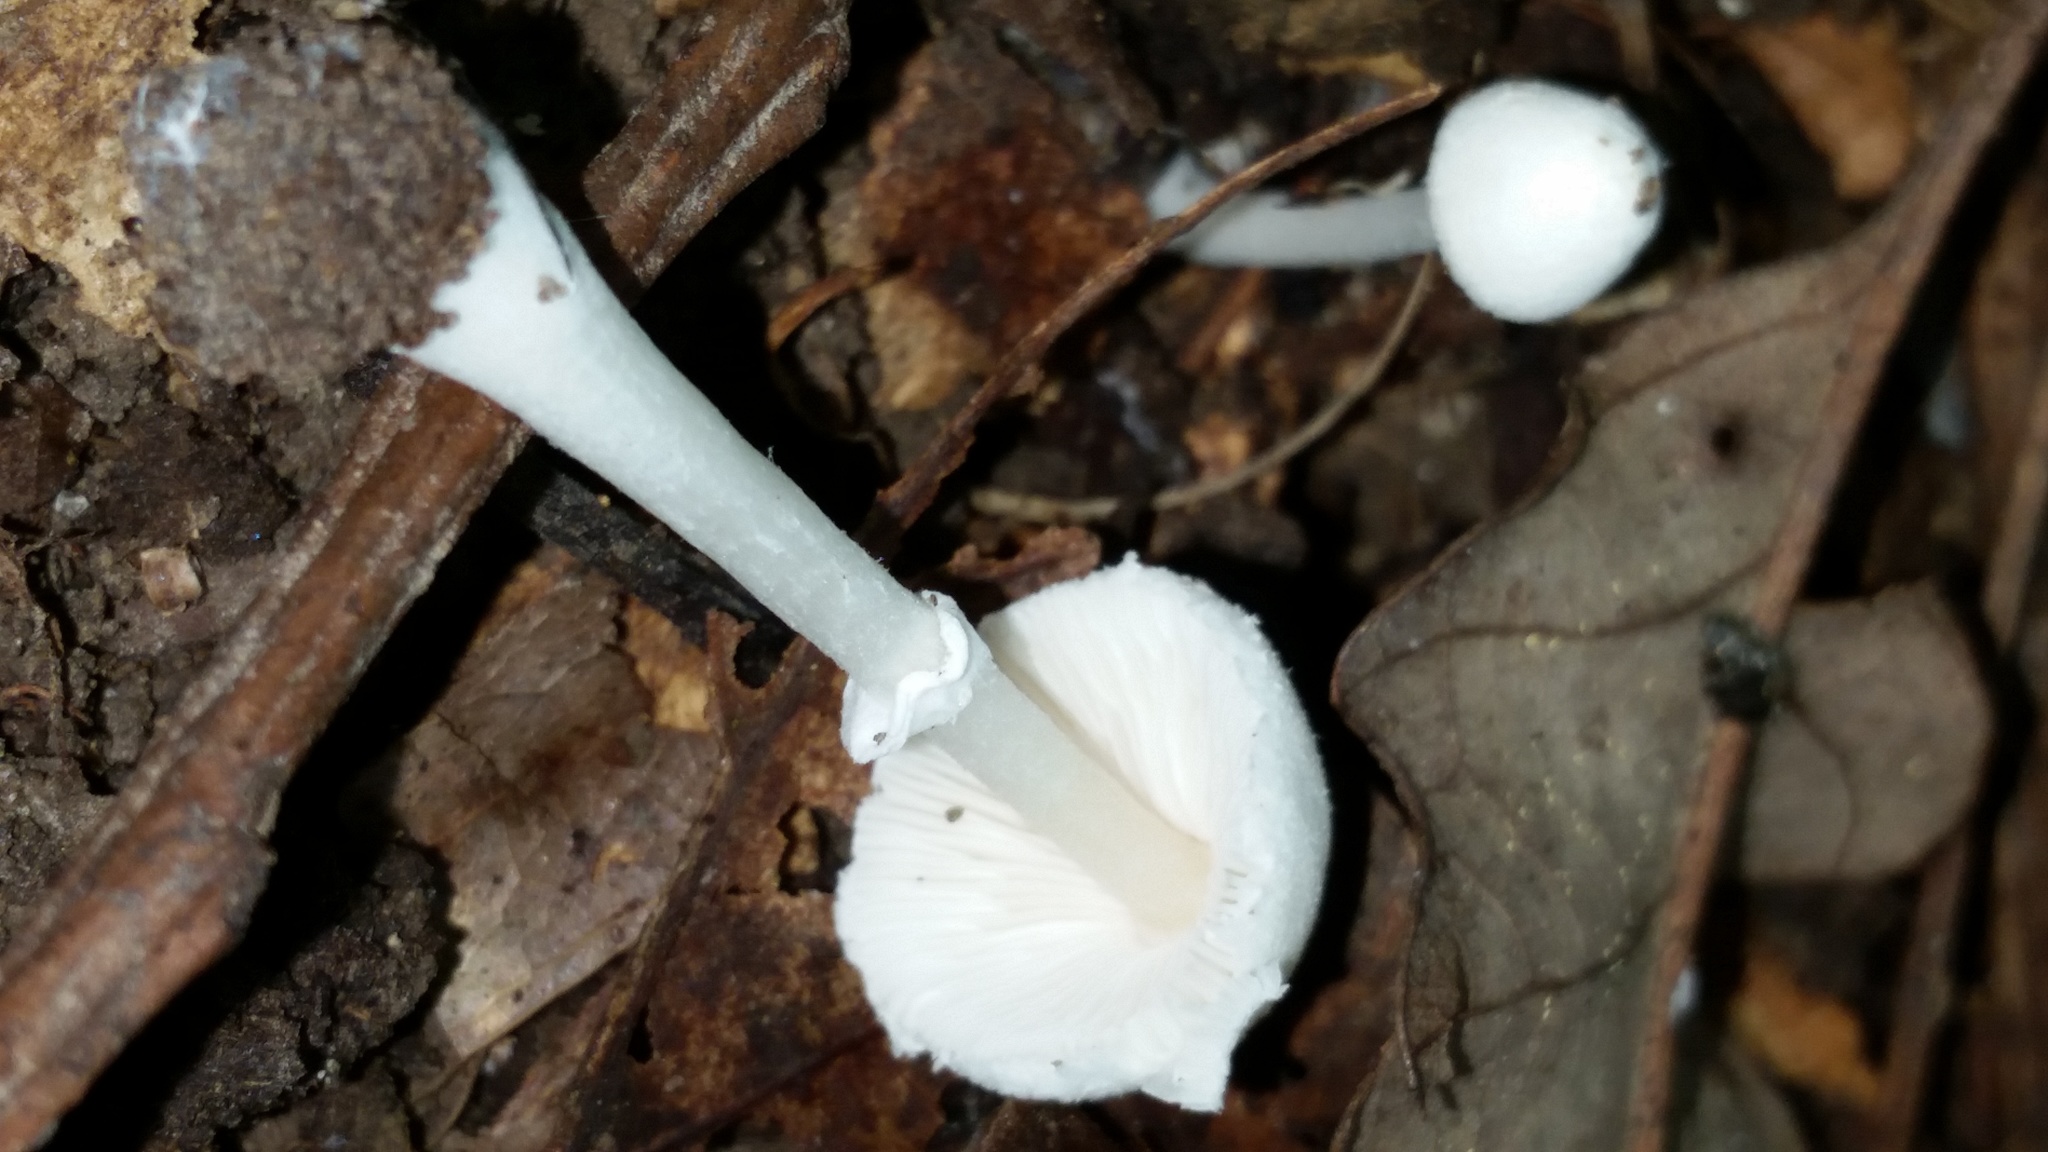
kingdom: Fungi
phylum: Basidiomycota
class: Agaricomycetes
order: Agaricales
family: Agaricaceae
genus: Leucocoprinus
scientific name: Leucocoprinus cepistipes
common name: Onion-stalk parasol
